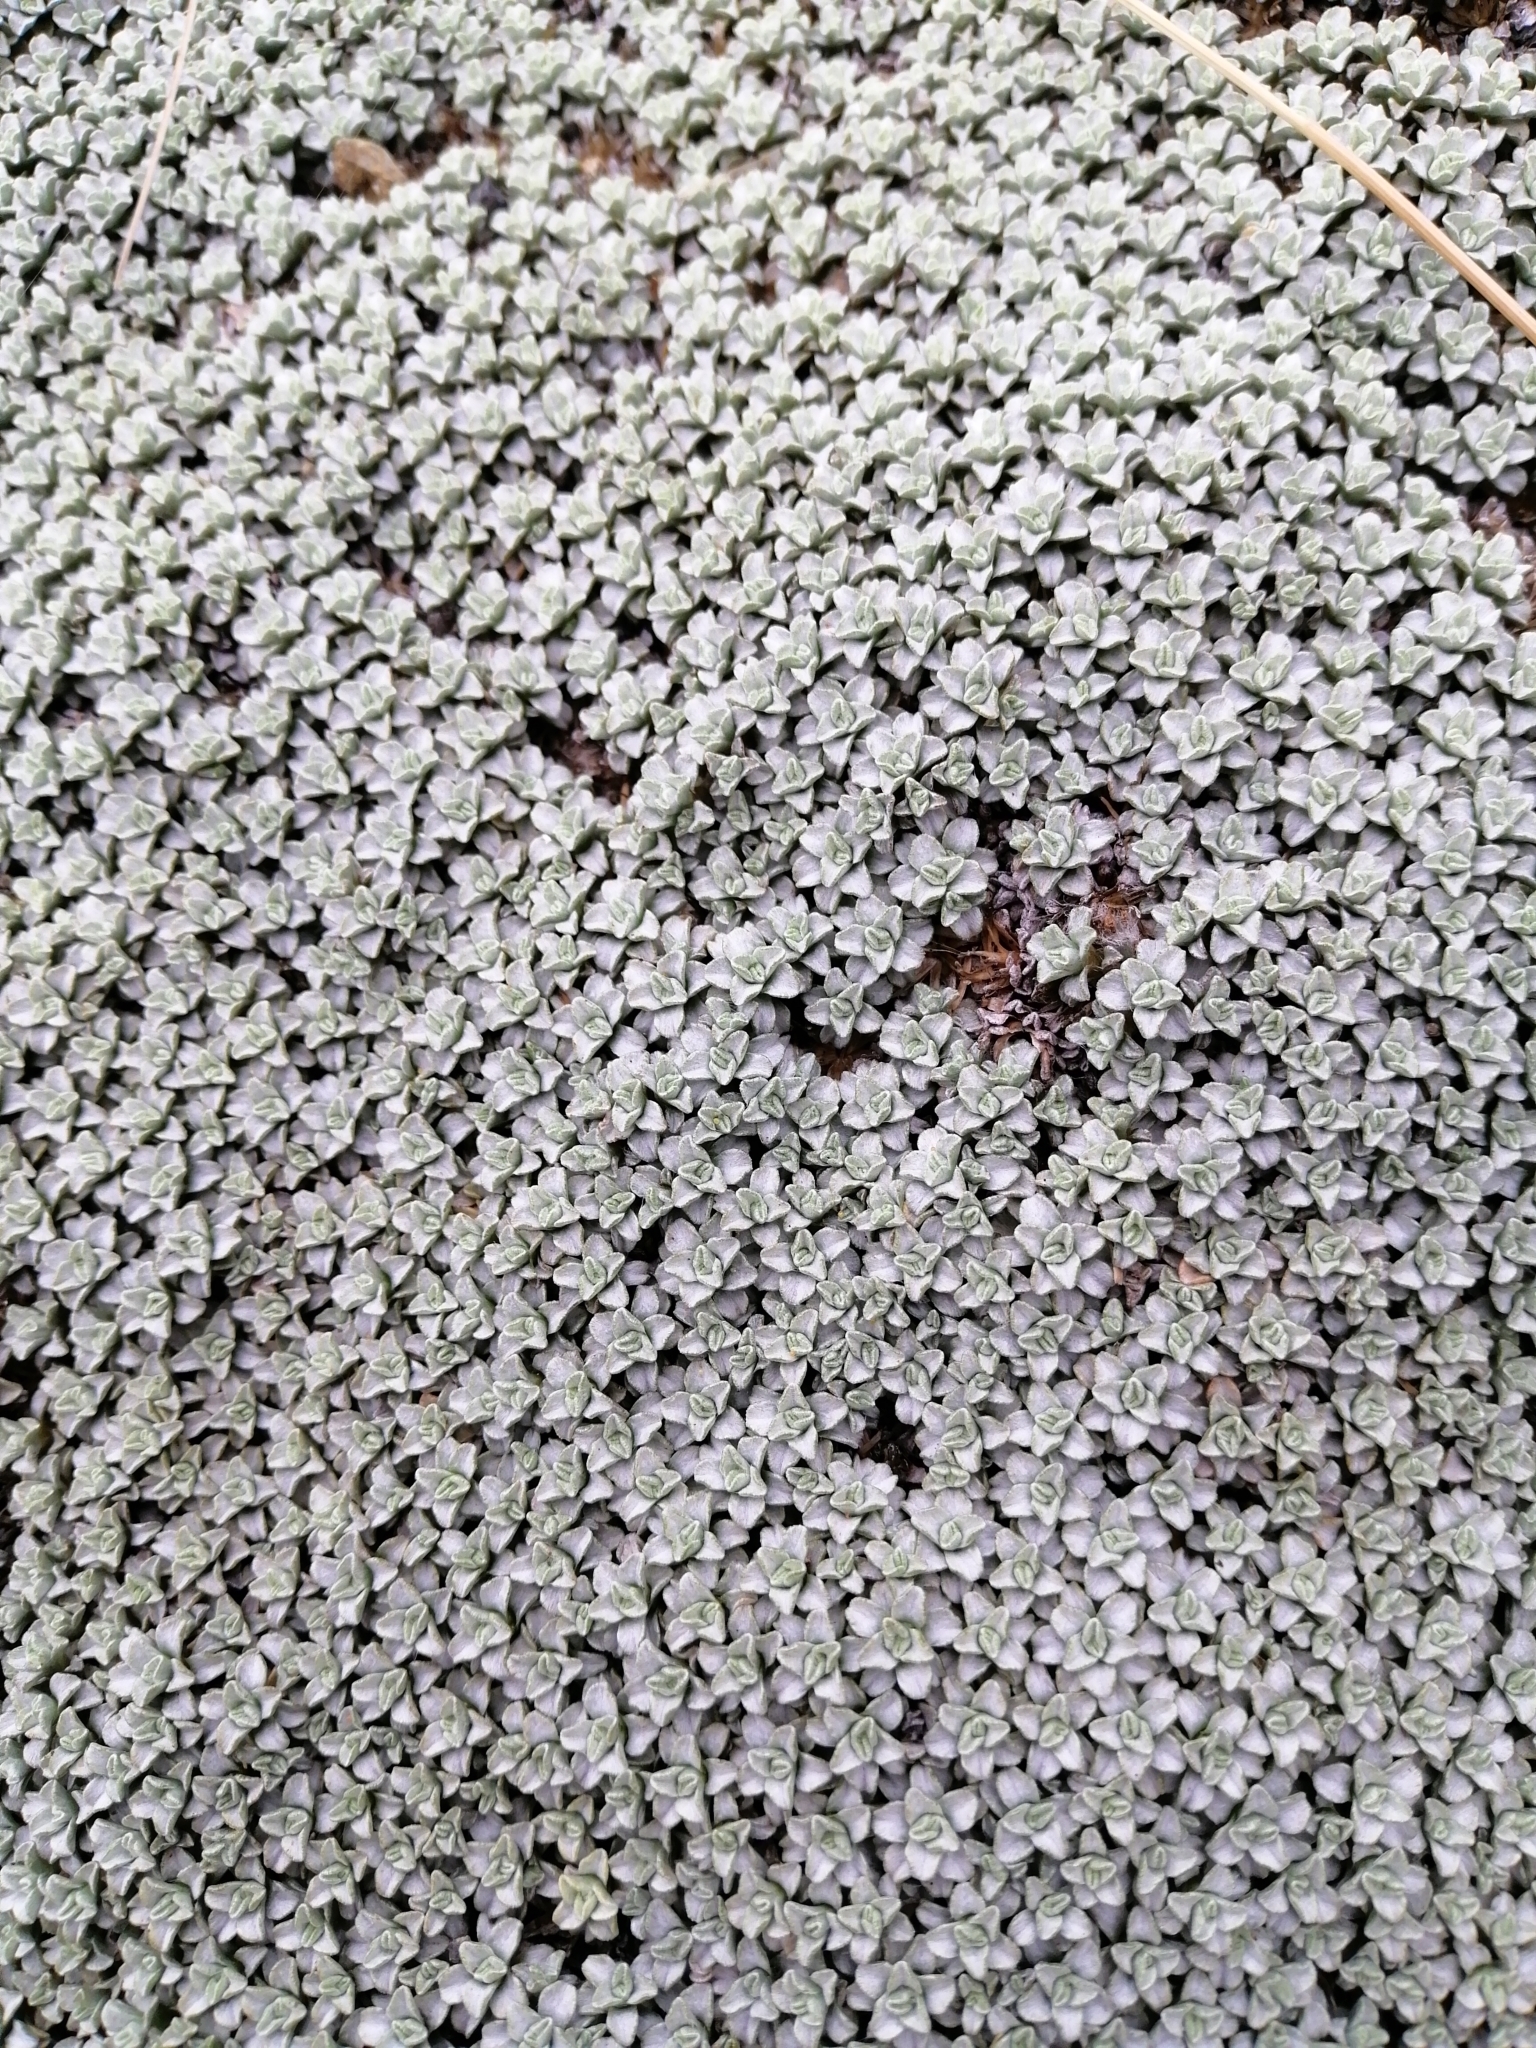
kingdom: Plantae
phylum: Tracheophyta
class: Magnoliopsida
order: Asterales
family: Asteraceae
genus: Raoulia
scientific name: Raoulia hookeri
